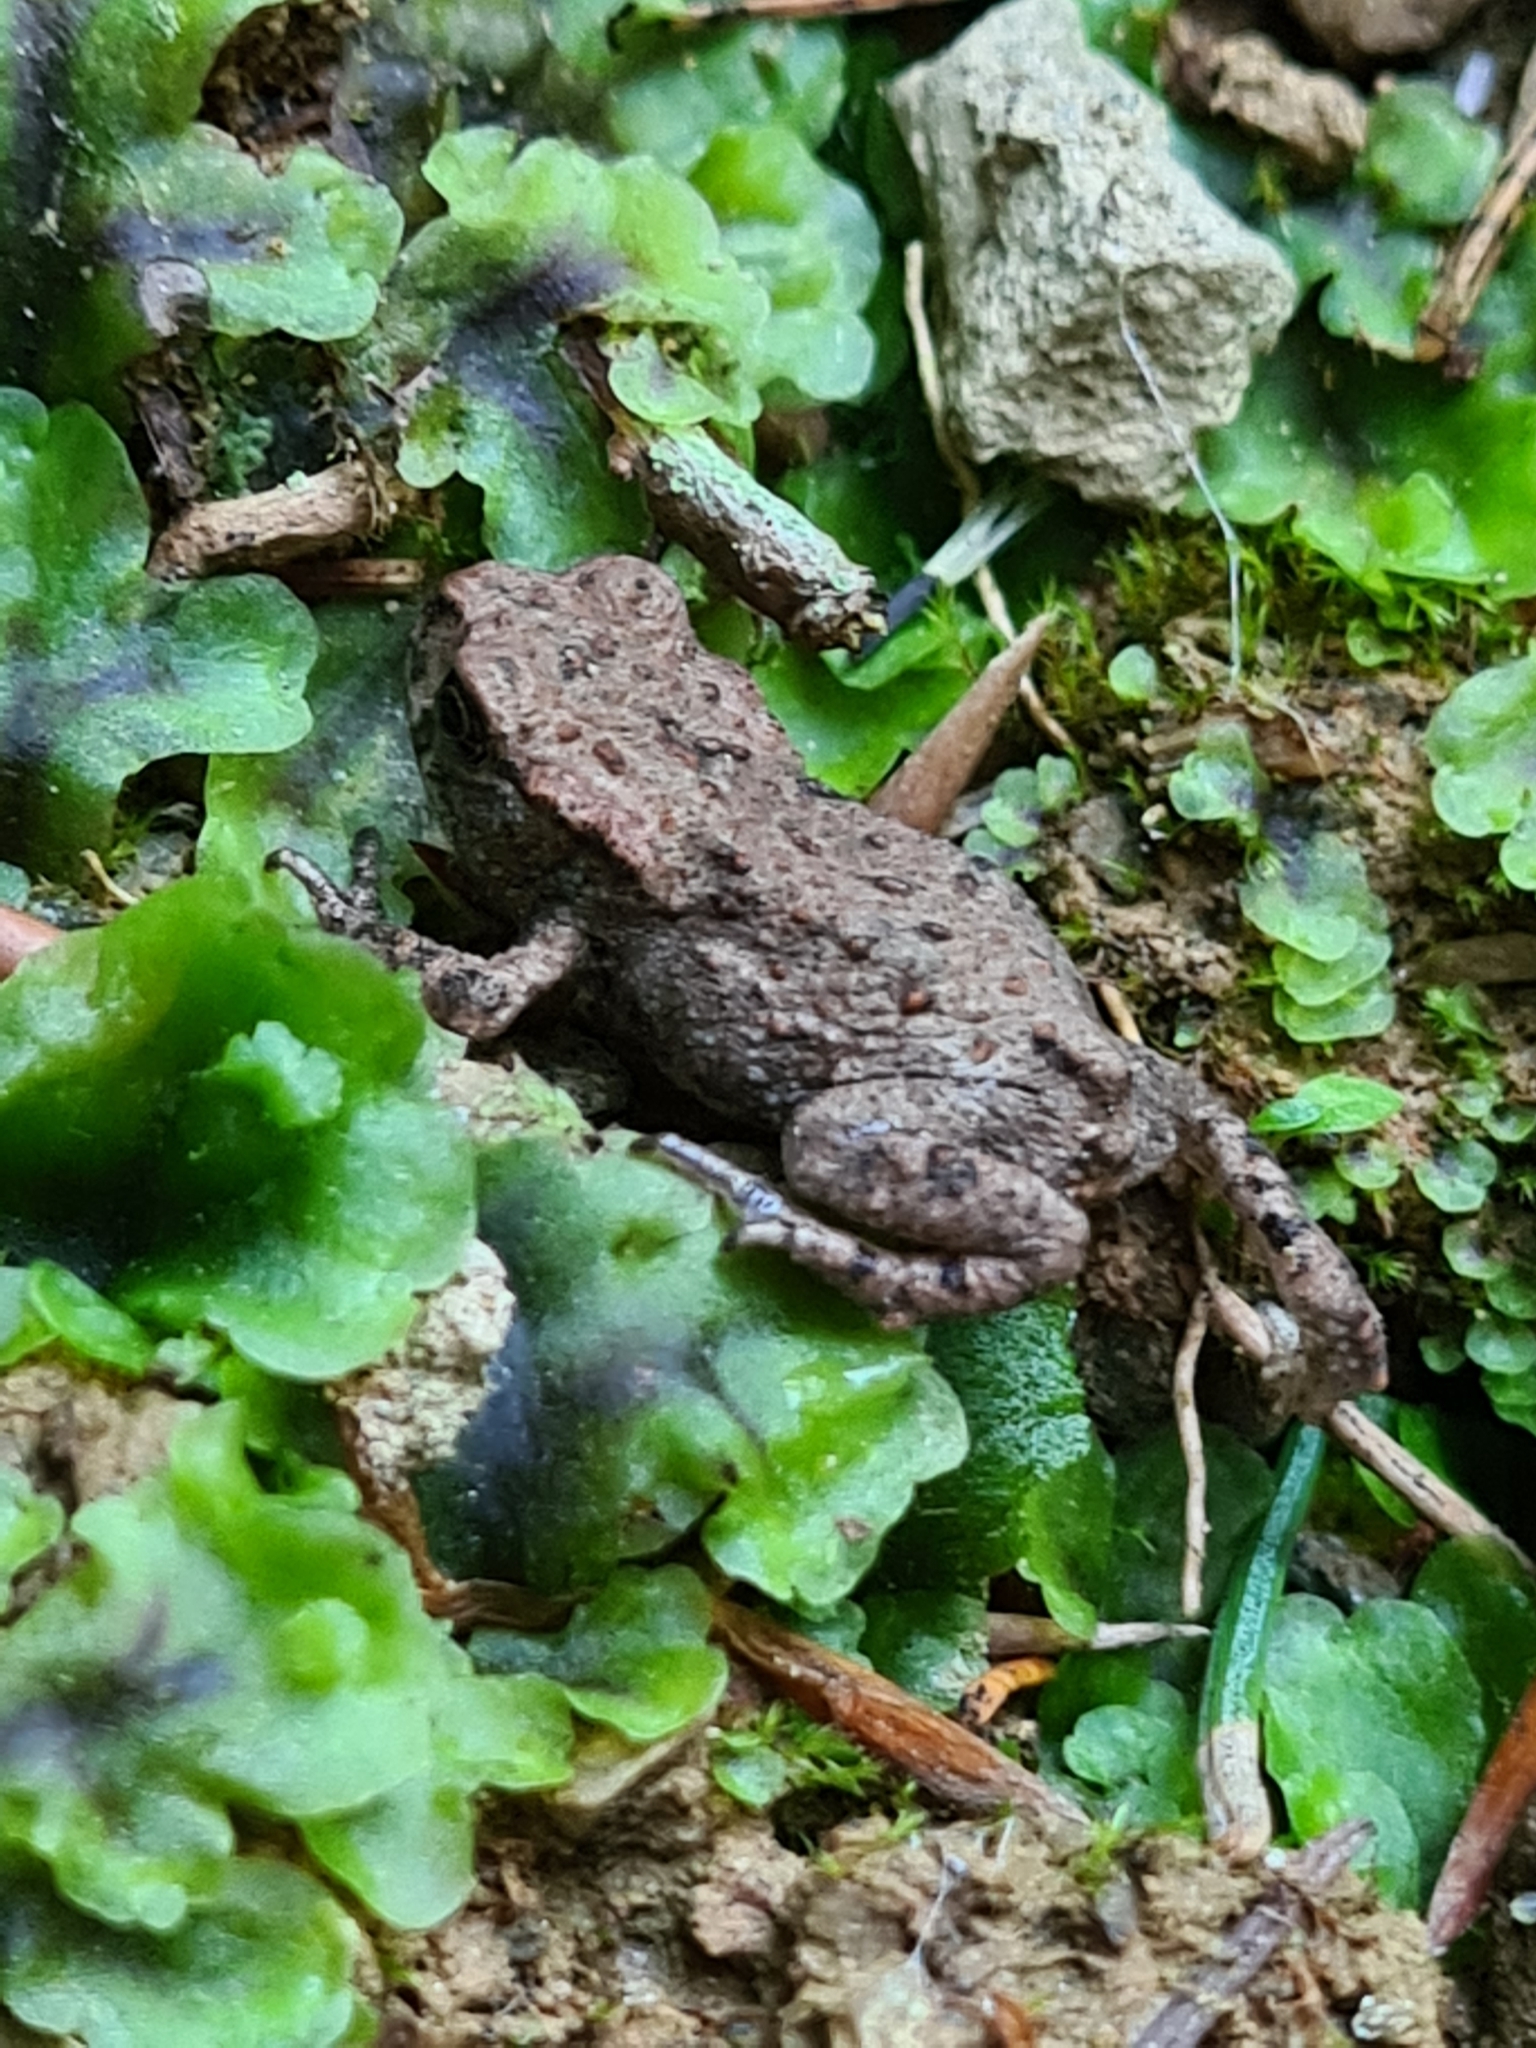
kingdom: Animalia
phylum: Chordata
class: Amphibia
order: Anura
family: Bufonidae
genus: Bufo
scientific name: Bufo bufo
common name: Common toad
